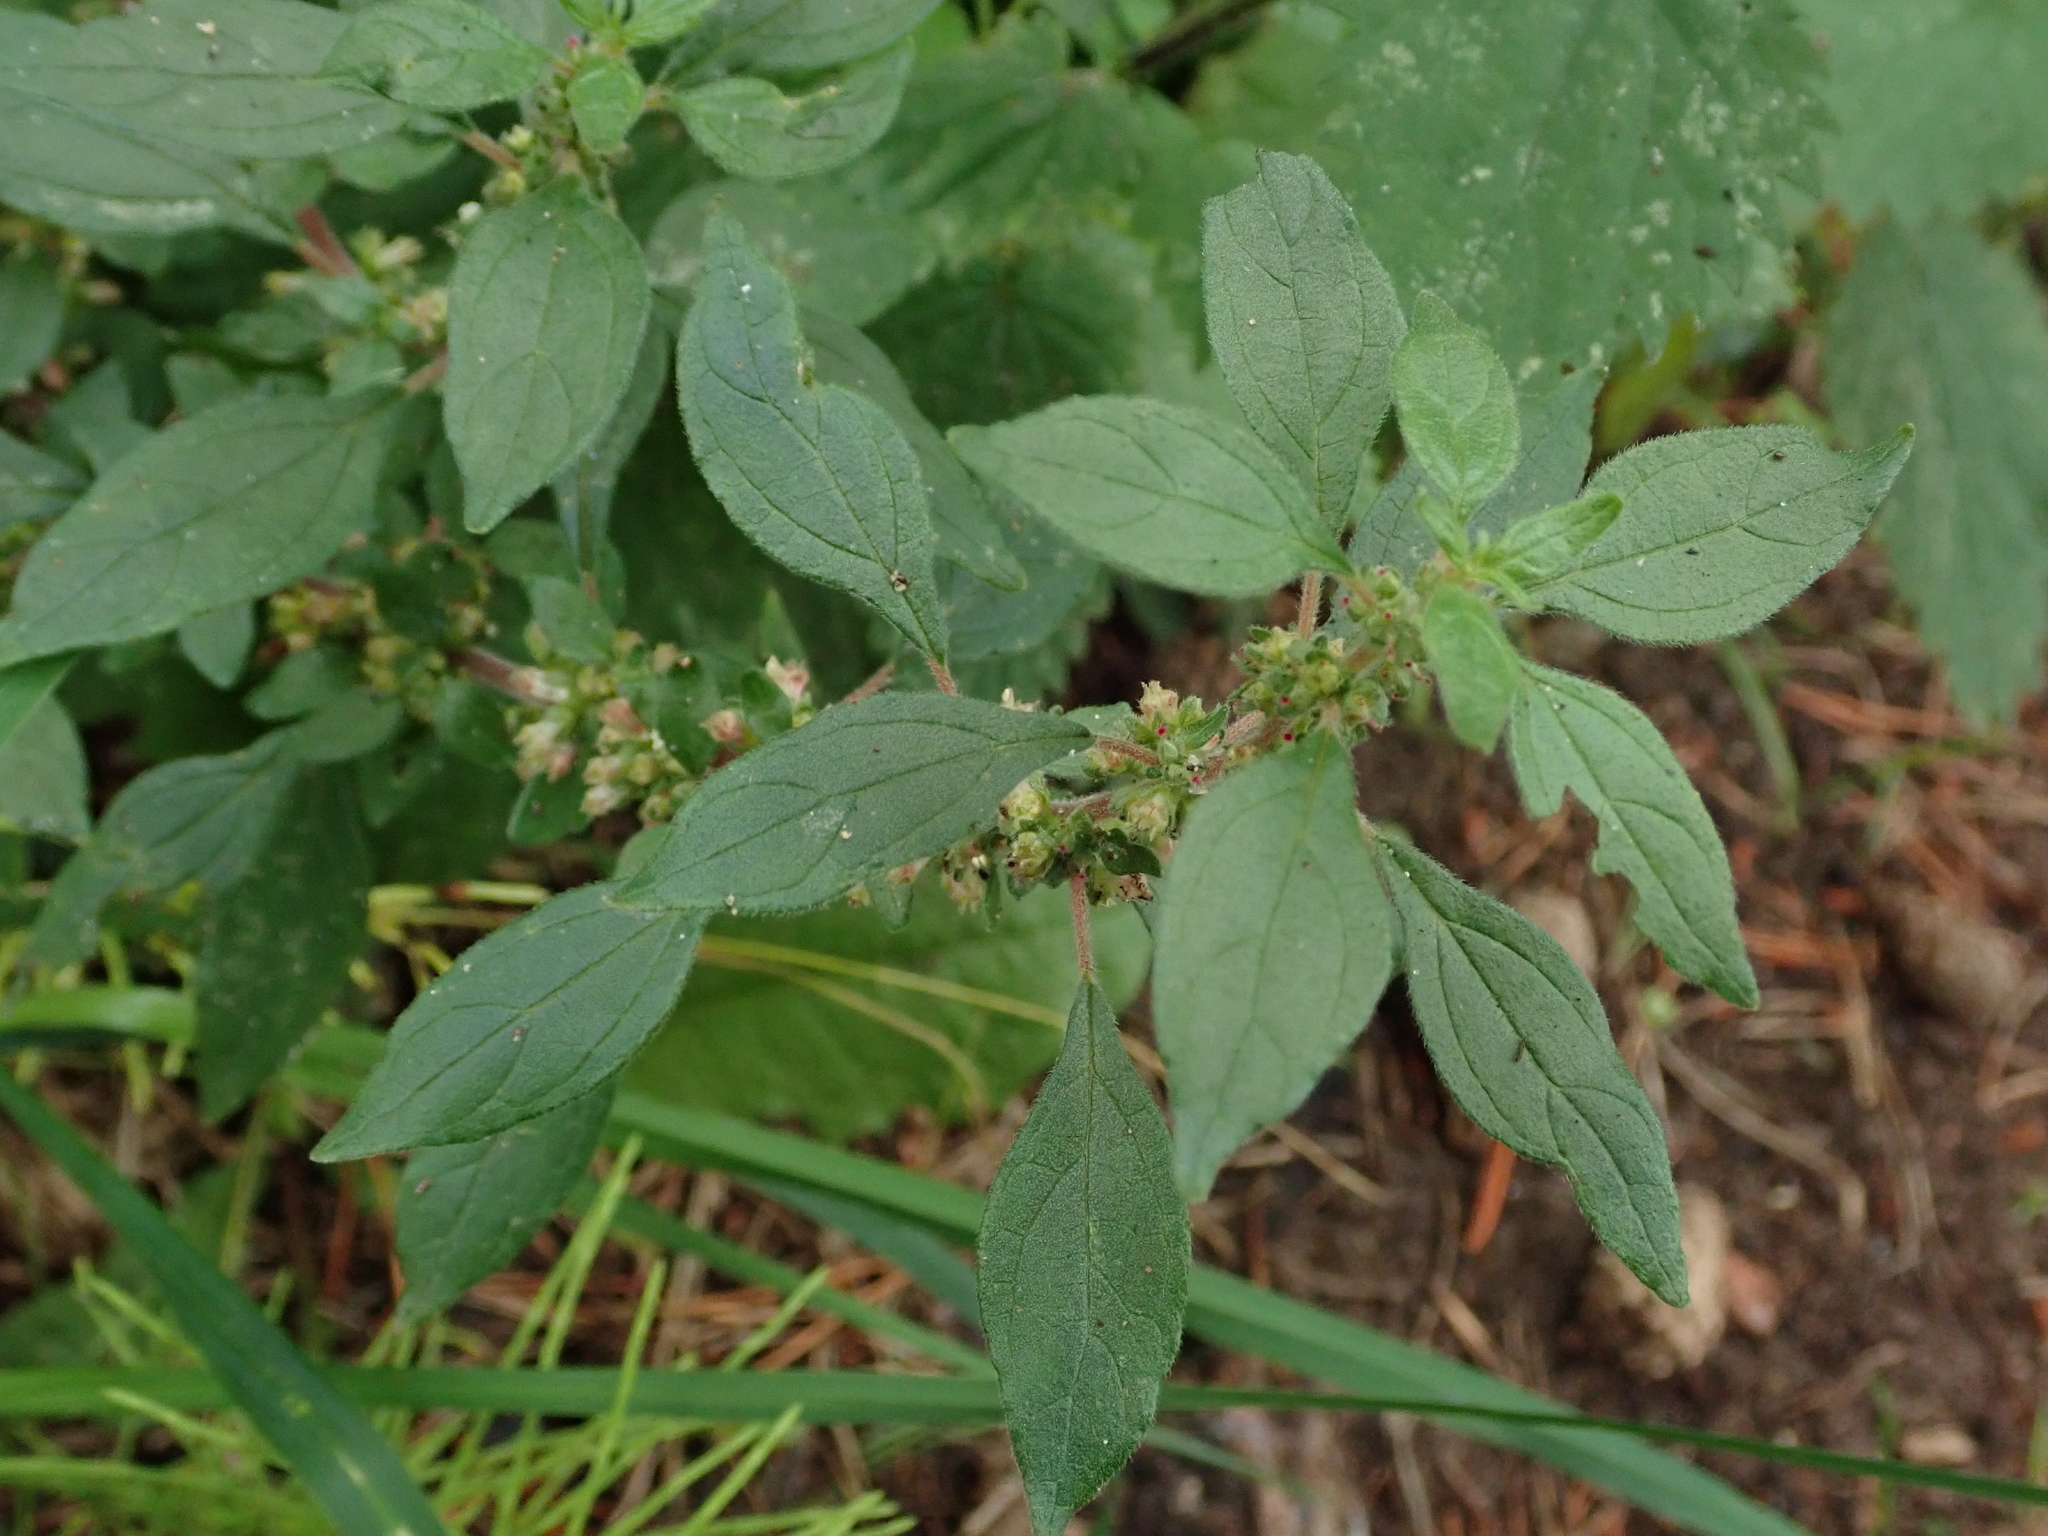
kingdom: Plantae
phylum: Tracheophyta
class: Magnoliopsida
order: Rosales
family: Urticaceae
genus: Parietaria
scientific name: Parietaria judaica
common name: Pellitory-of-the-wall
